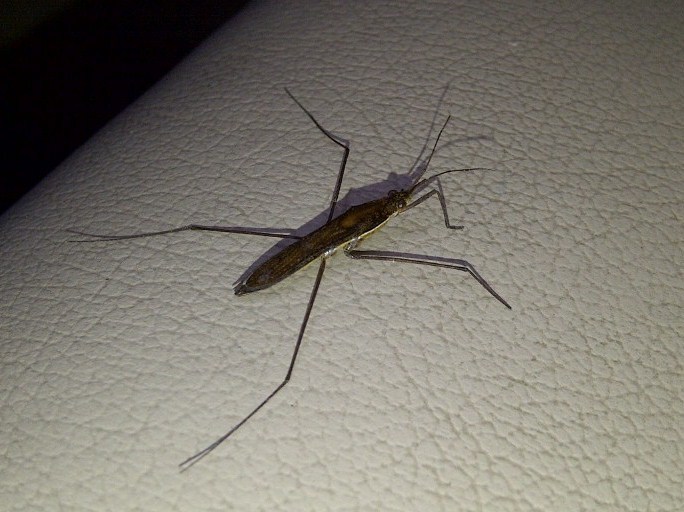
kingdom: Animalia
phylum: Arthropoda
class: Insecta
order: Hemiptera
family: Gerridae
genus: Limnoporus
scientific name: Limnoporus dissortis
